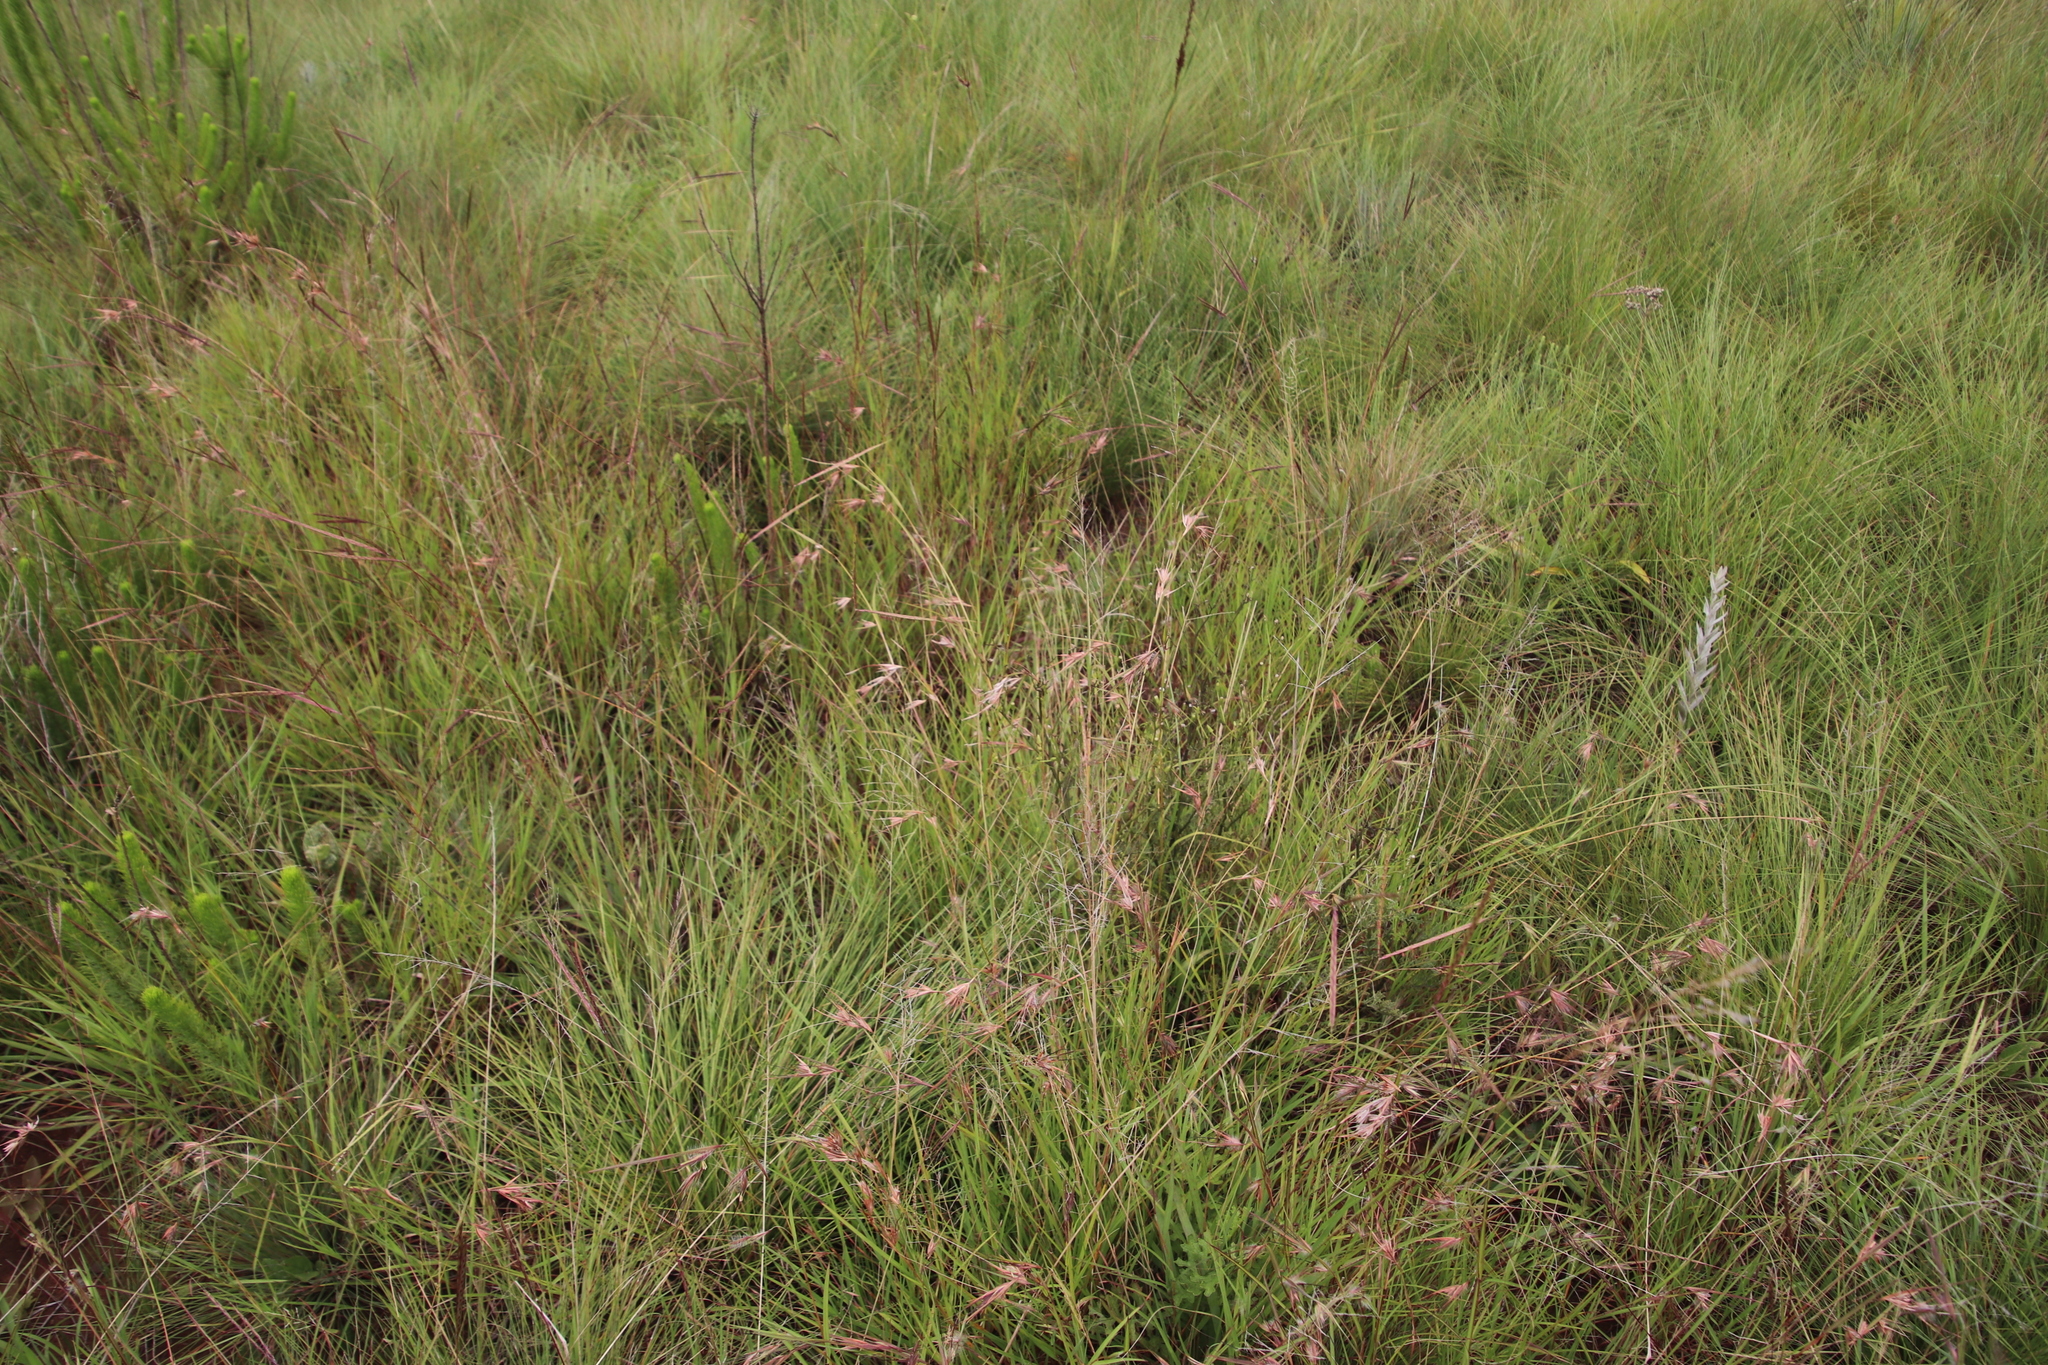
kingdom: Plantae
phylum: Tracheophyta
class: Liliopsida
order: Poales
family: Poaceae
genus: Themeda
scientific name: Themeda triandra
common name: Kangaroo grass
